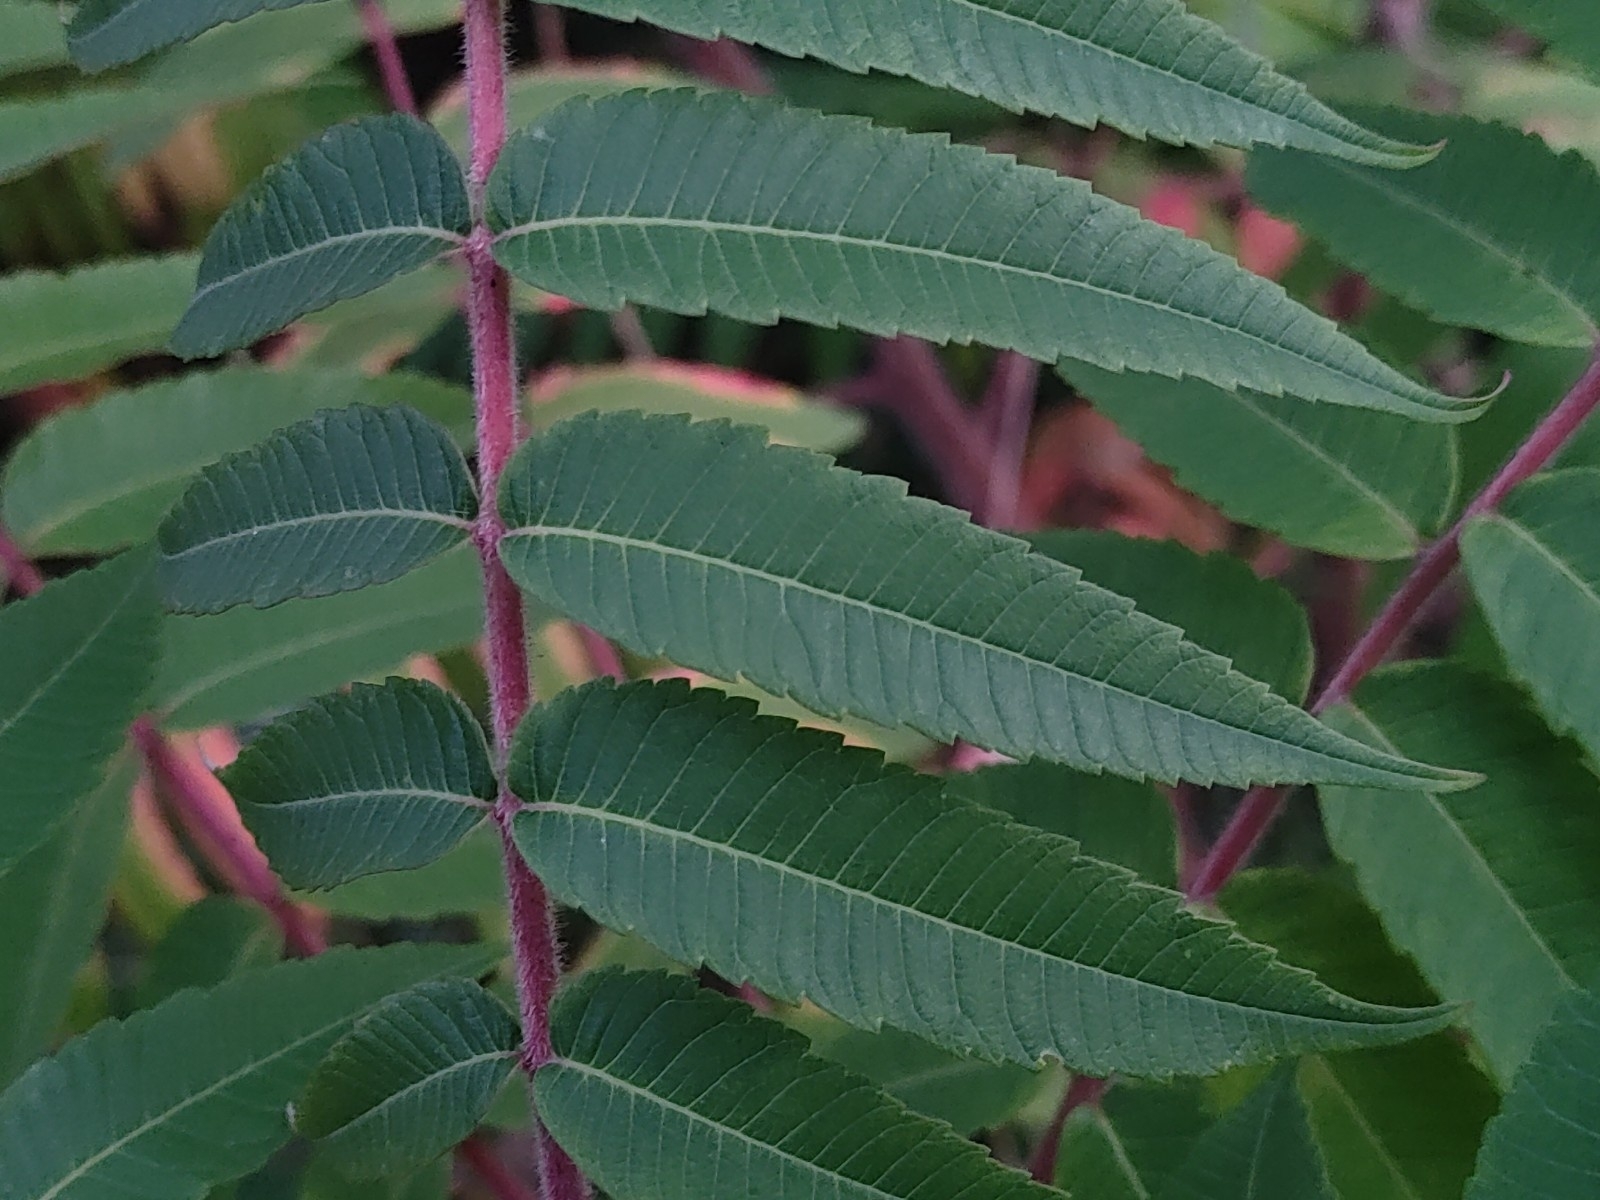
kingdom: Plantae
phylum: Tracheophyta
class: Magnoliopsida
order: Sapindales
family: Anacardiaceae
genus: Rhus
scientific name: Rhus typhina
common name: Staghorn sumac
